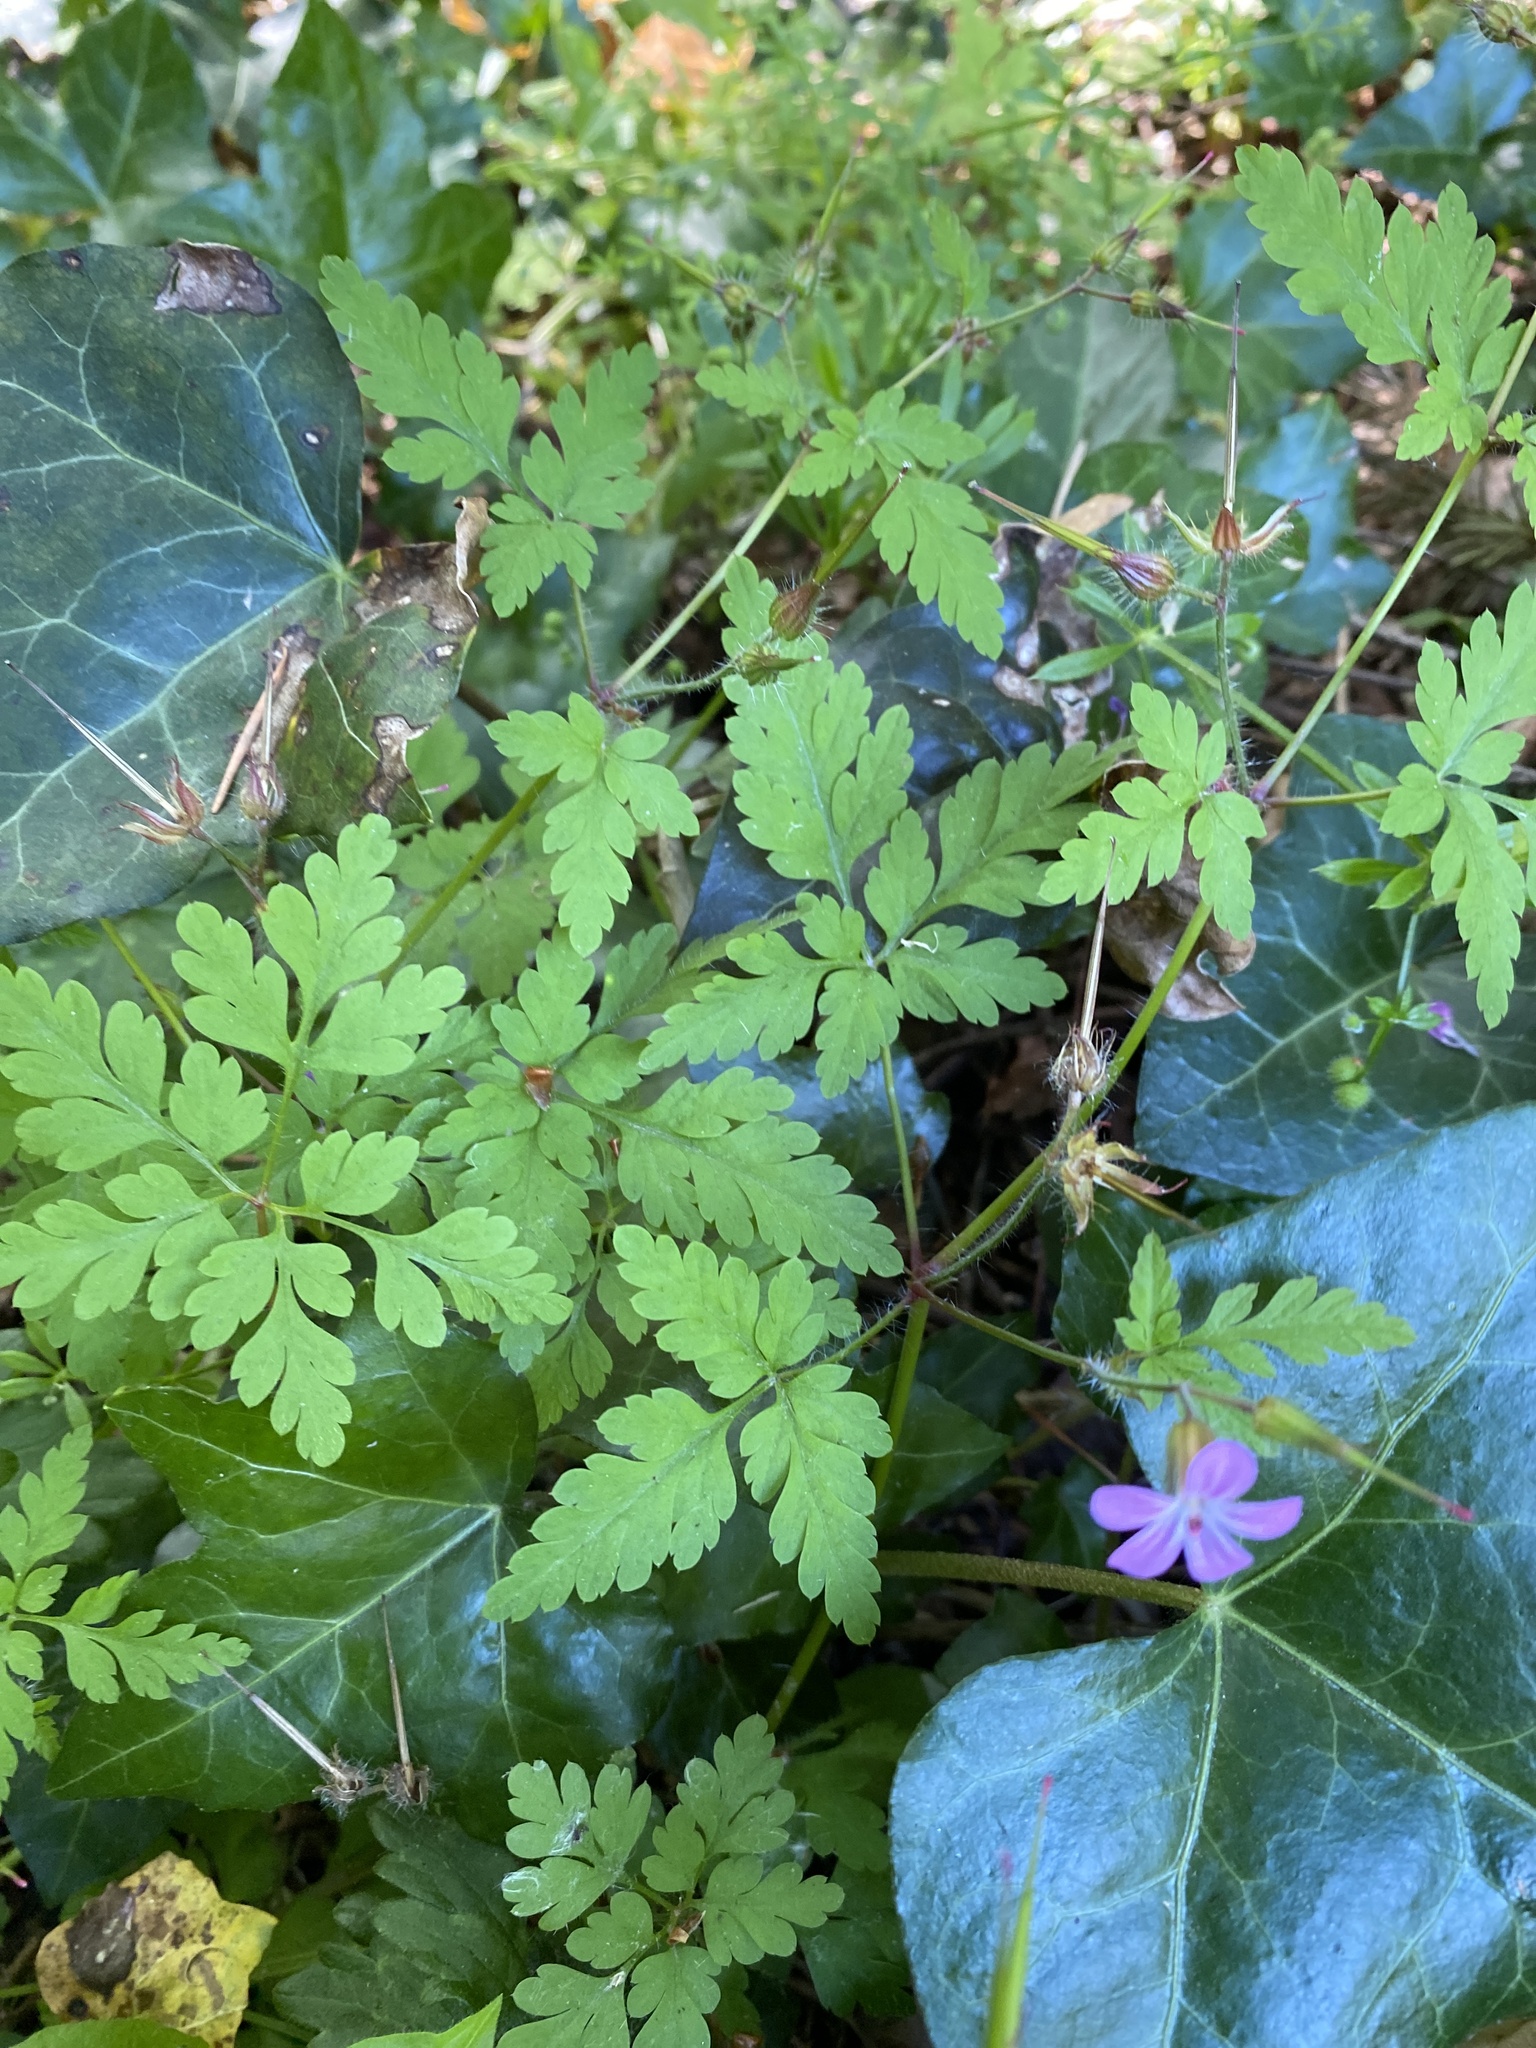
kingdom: Plantae
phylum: Tracheophyta
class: Magnoliopsida
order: Geraniales
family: Geraniaceae
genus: Geranium
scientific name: Geranium robertianum
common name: Herb-robert
